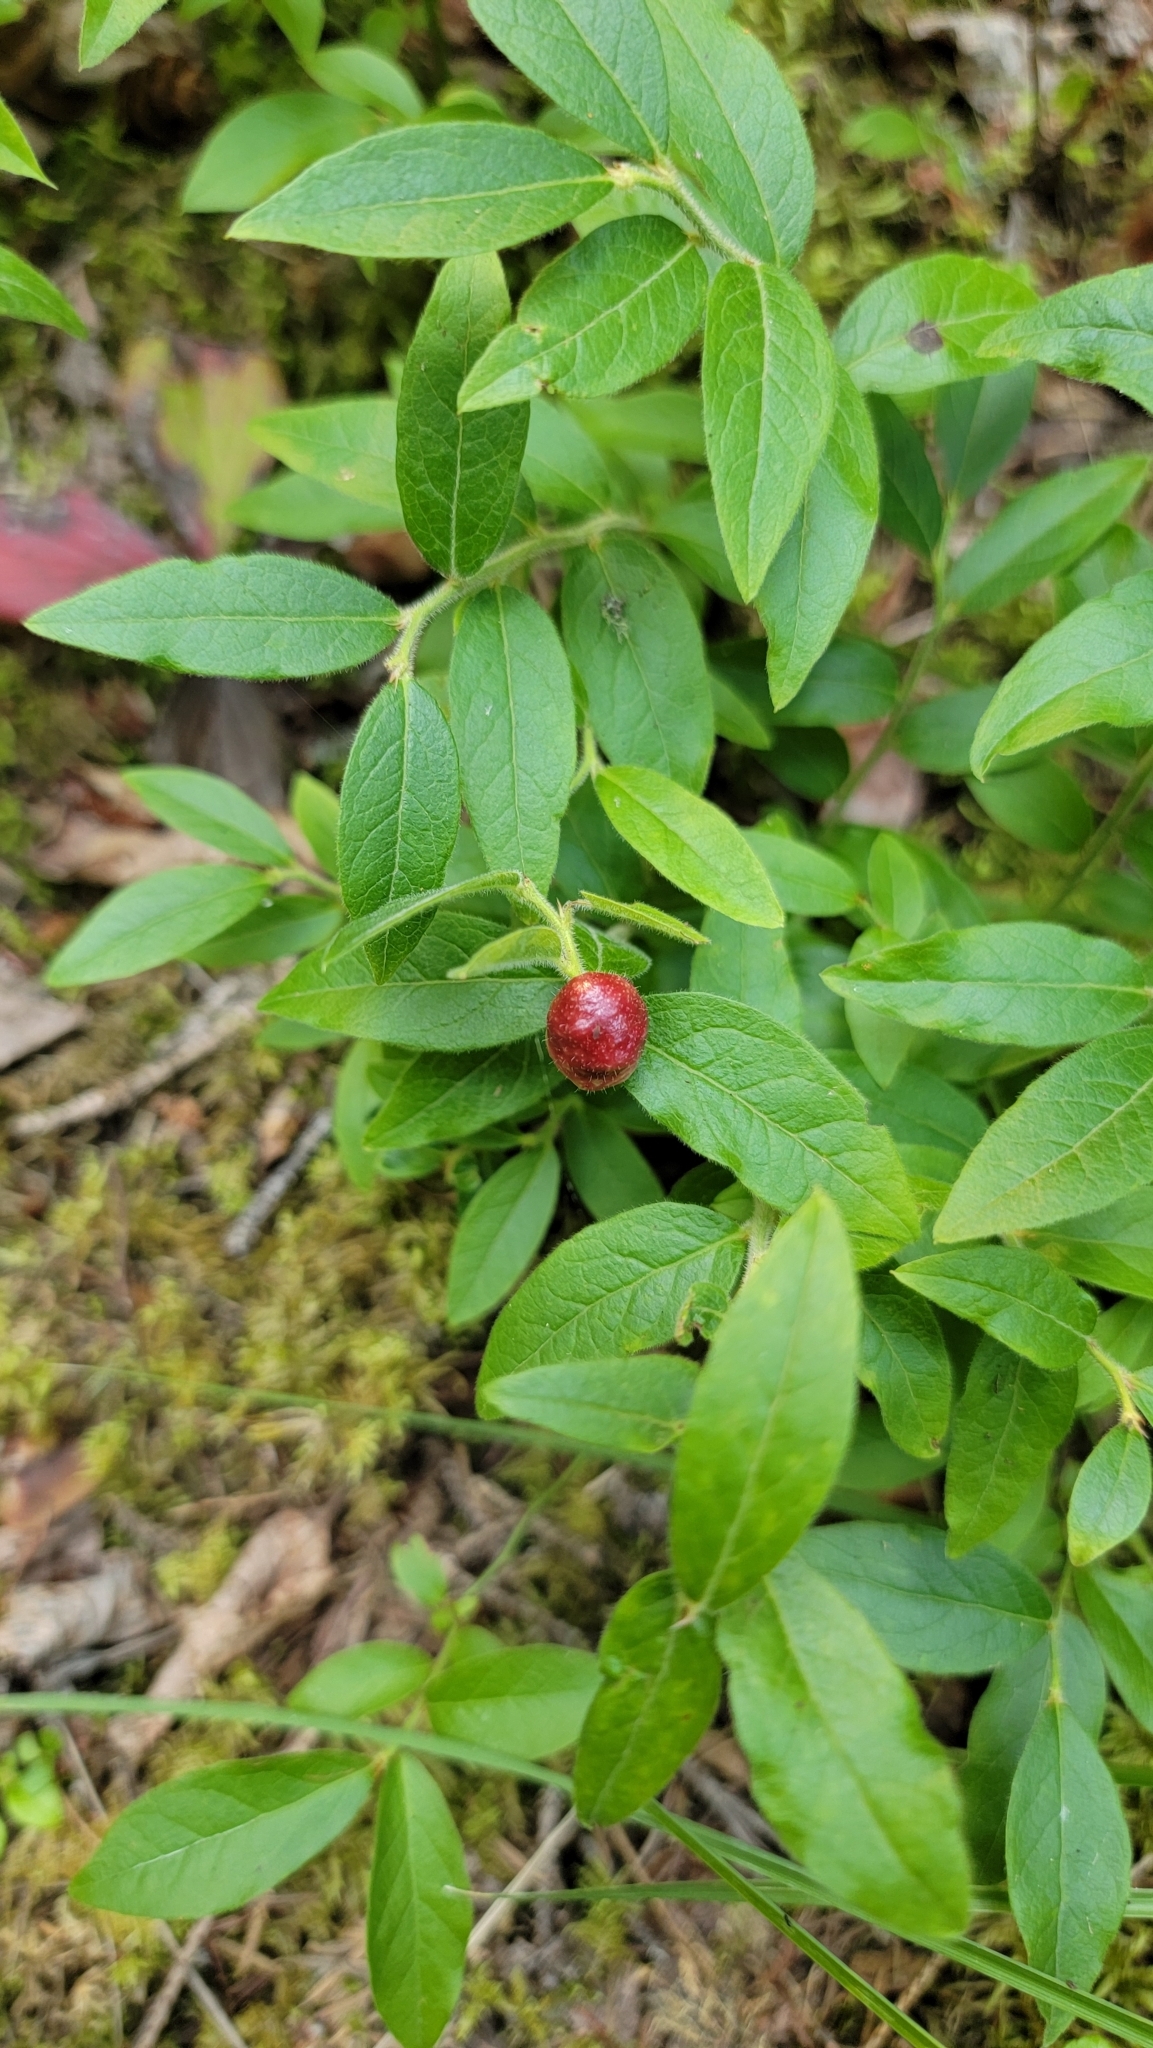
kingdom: Plantae
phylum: Tracheophyta
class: Magnoliopsida
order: Ericales
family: Ericaceae
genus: Vaccinium
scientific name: Vaccinium myrtilloides
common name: Canada blueberry
